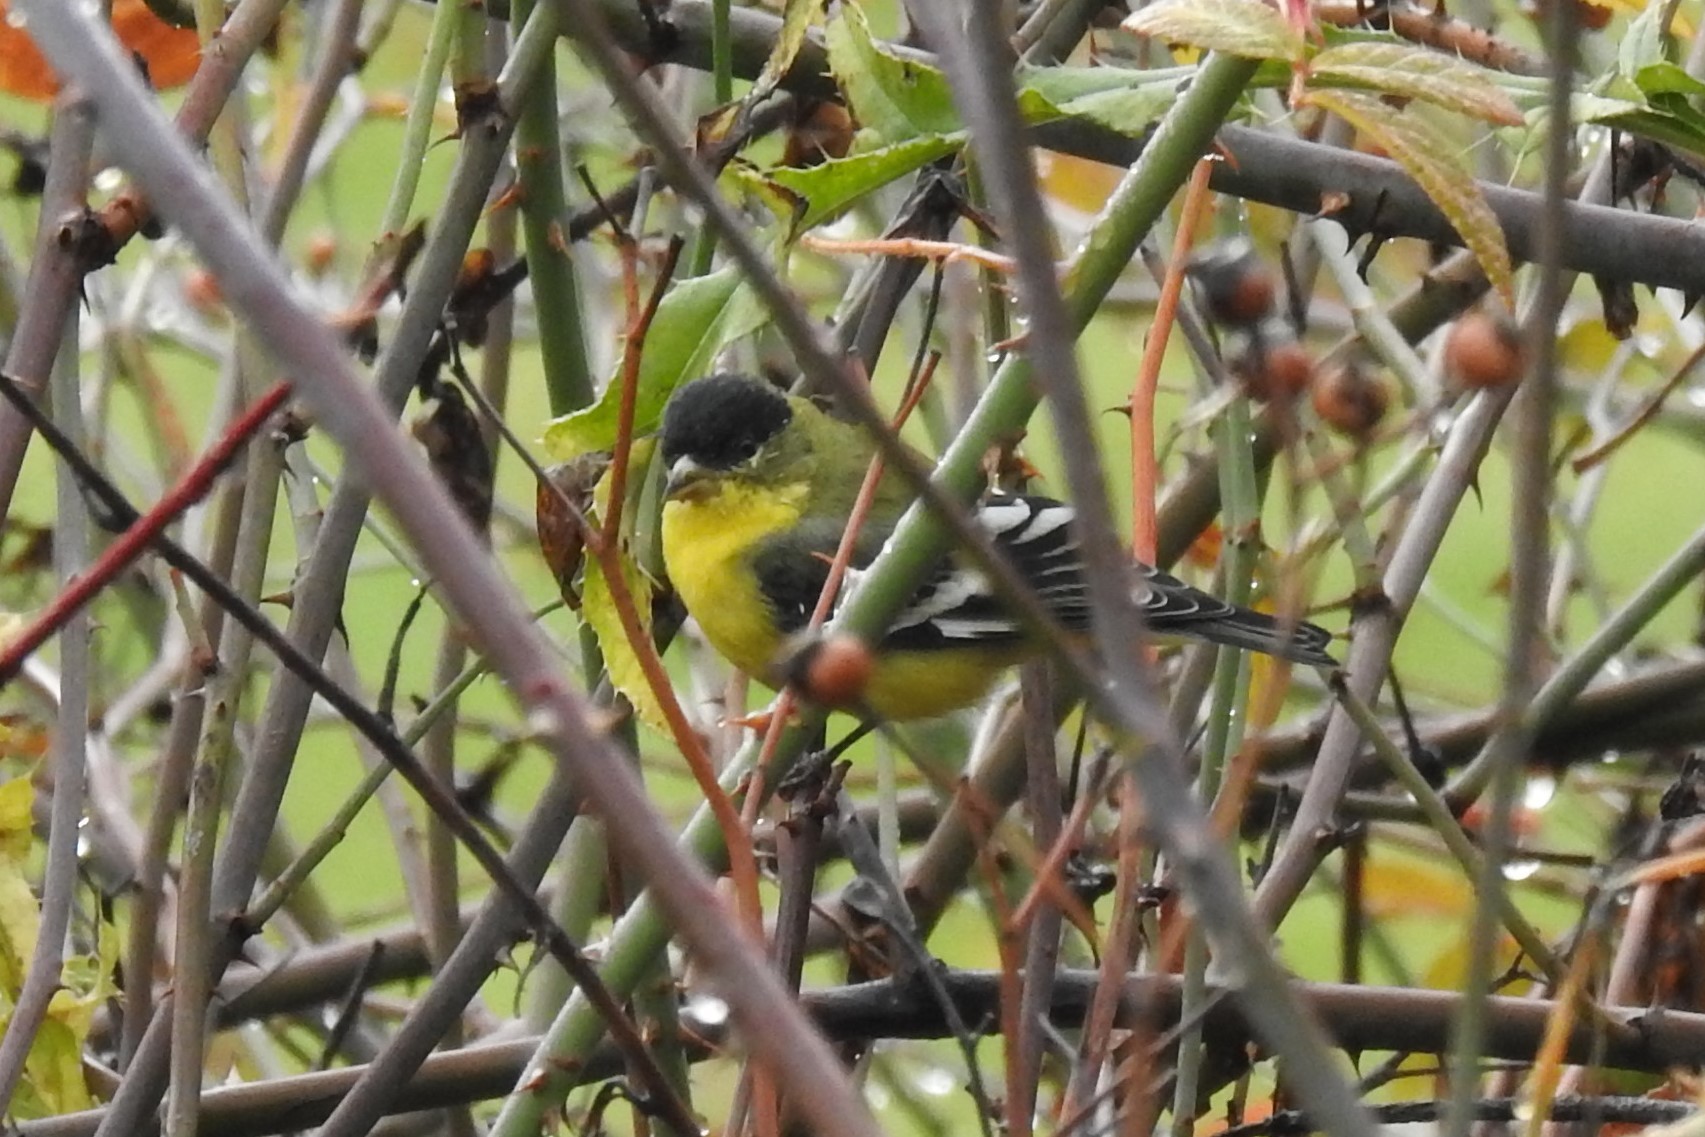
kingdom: Animalia
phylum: Chordata
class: Aves
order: Passeriformes
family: Fringillidae
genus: Spinus
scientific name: Spinus psaltria
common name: Lesser goldfinch
